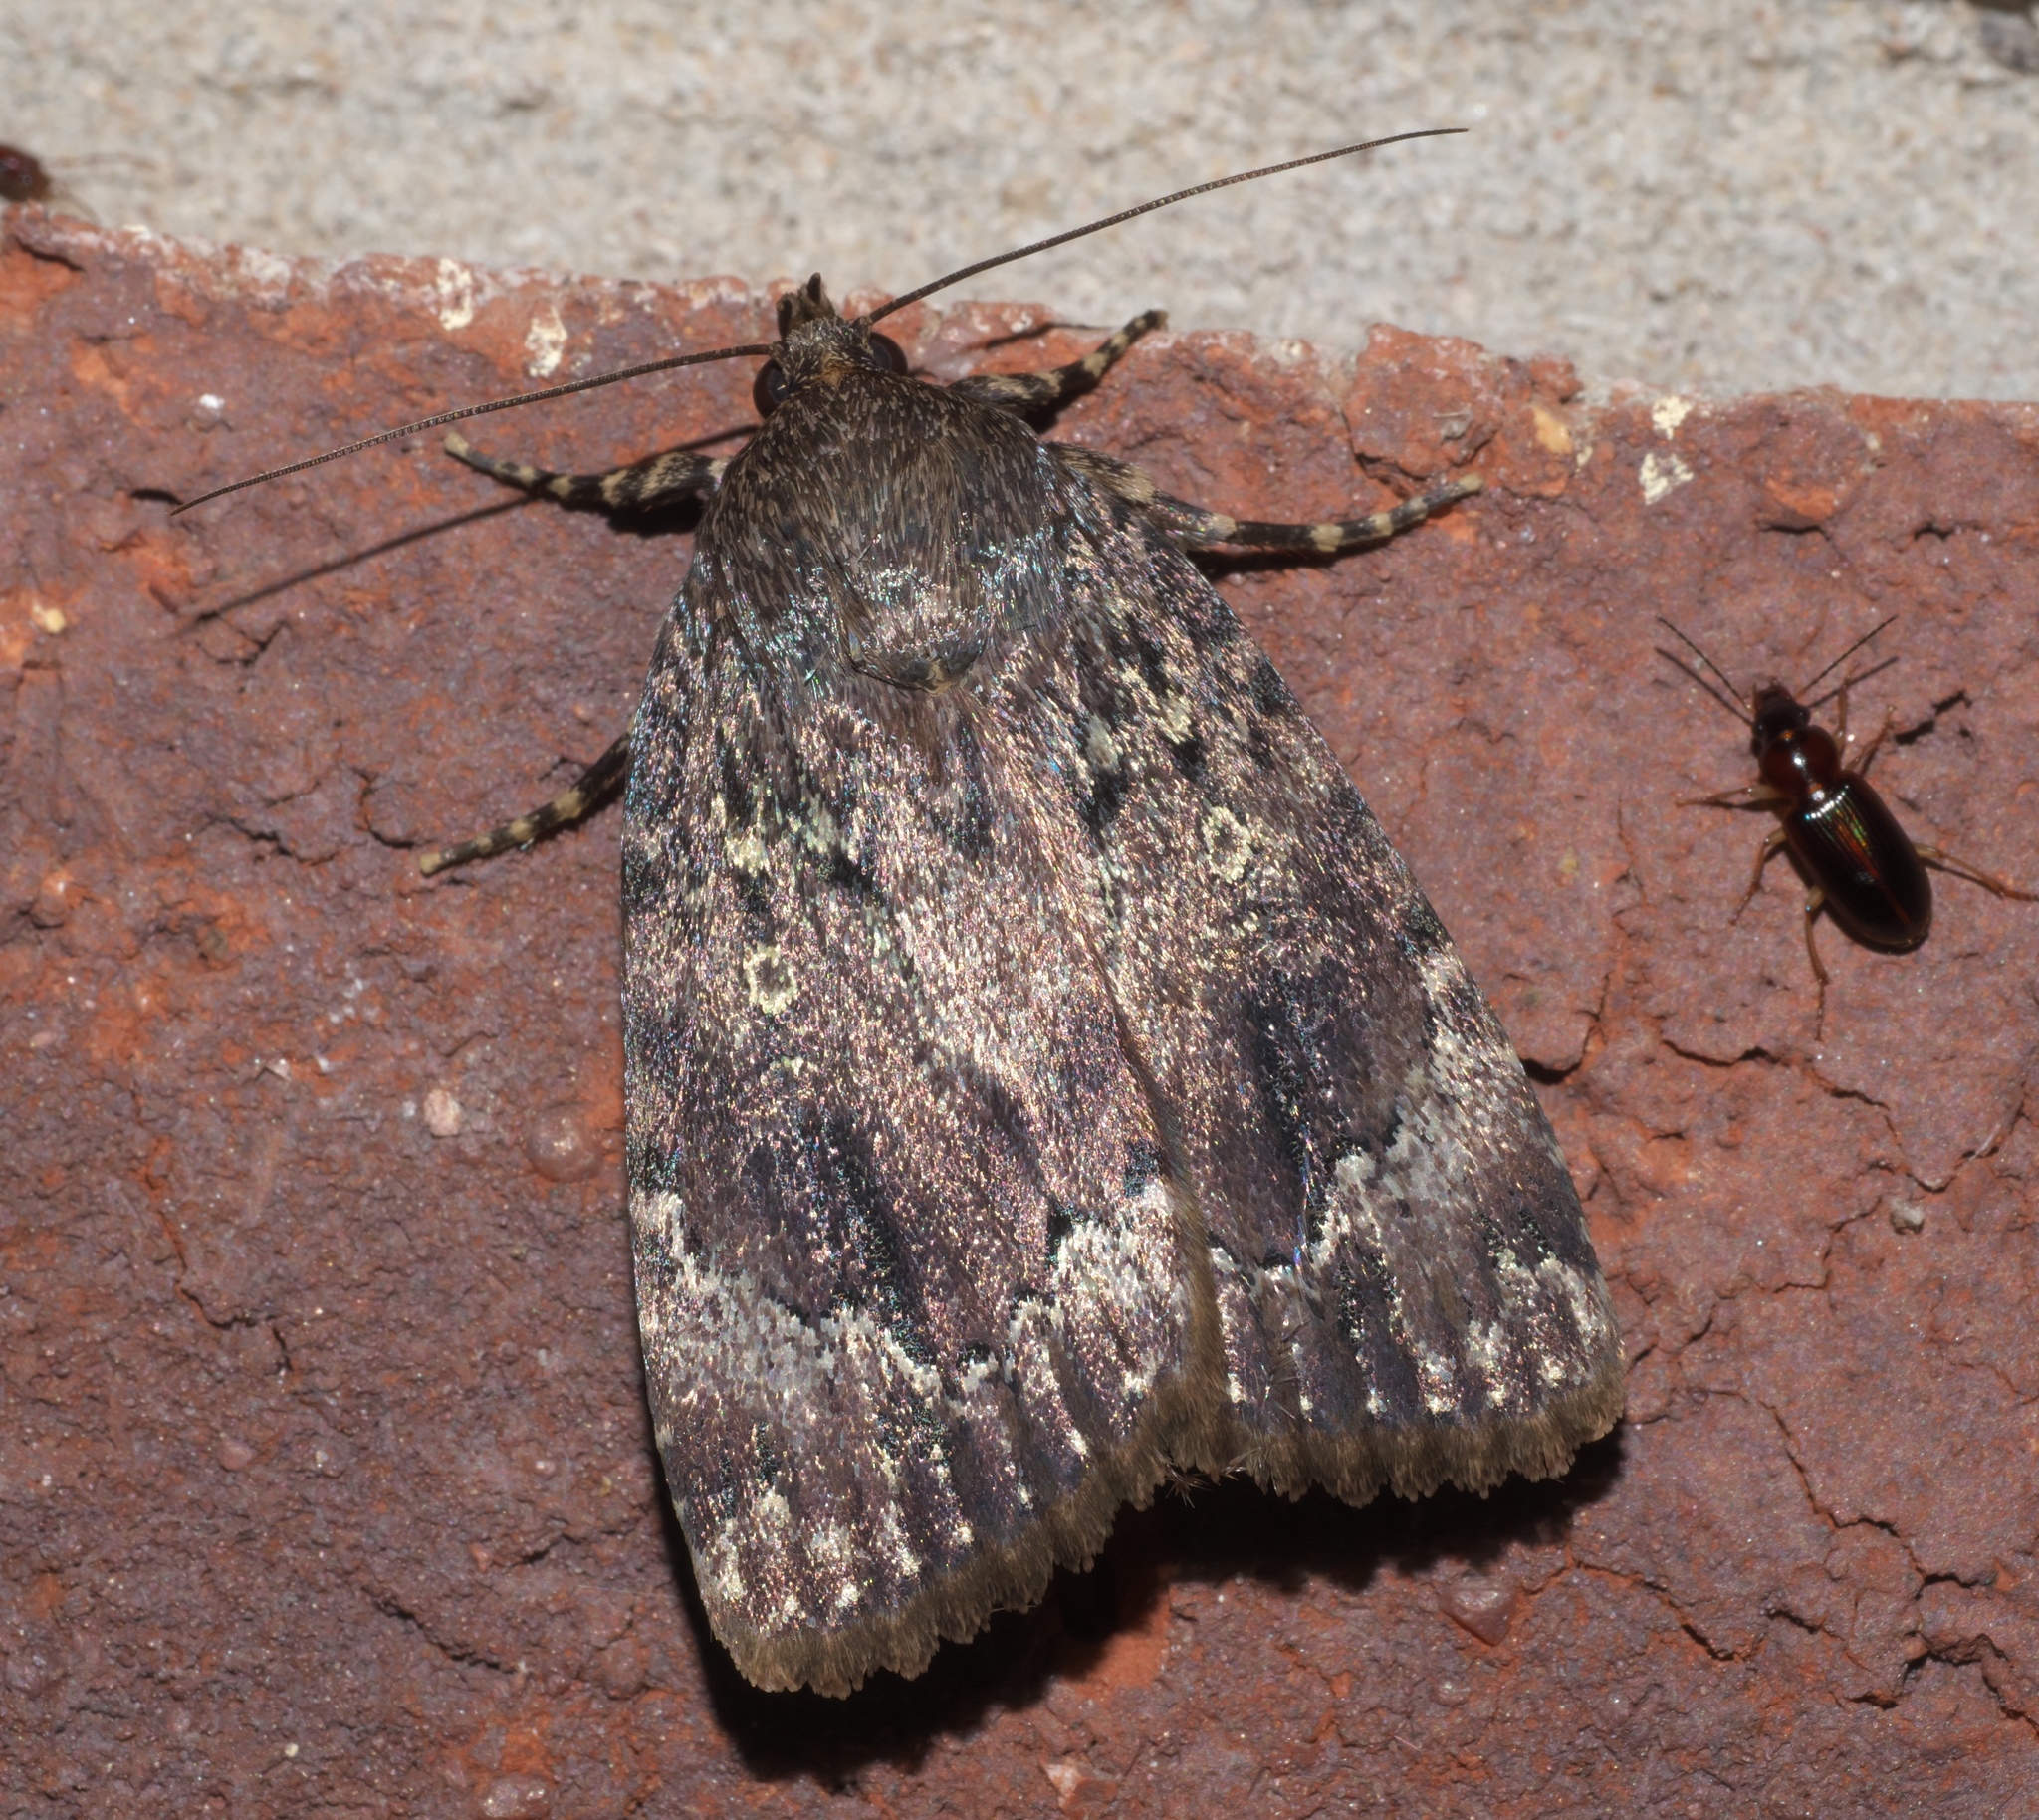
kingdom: Animalia
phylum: Arthropoda
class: Insecta
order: Lepidoptera
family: Noctuidae
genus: Amphipyra
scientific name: Amphipyra pyramidoides
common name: American copper underwing
